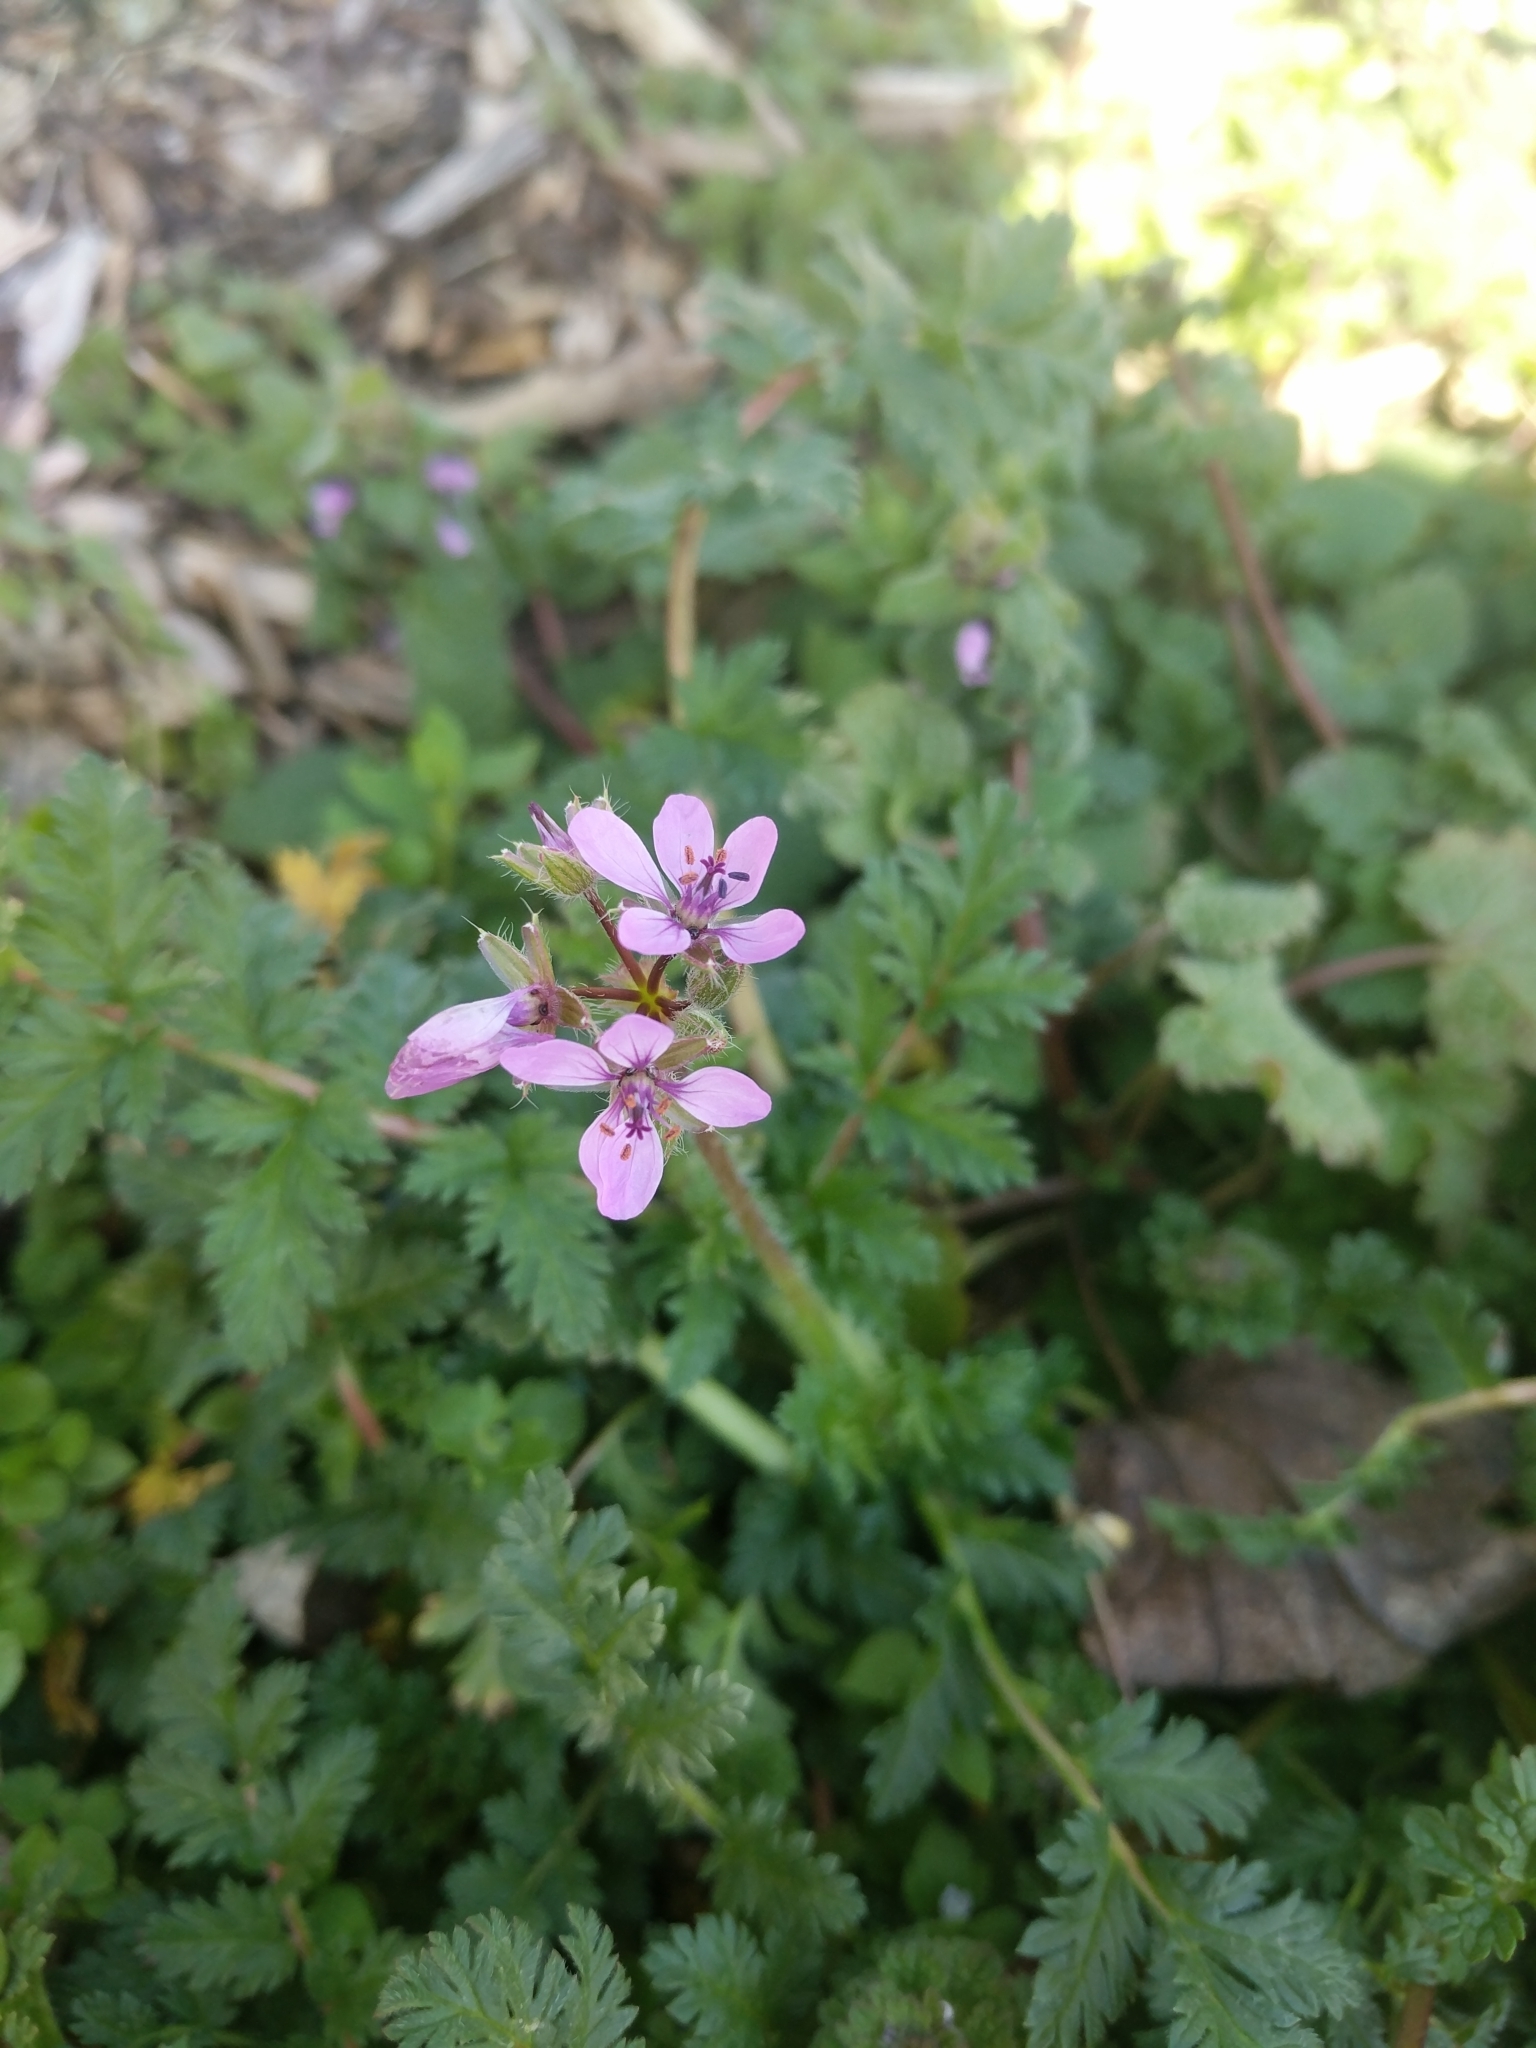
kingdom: Plantae
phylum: Tracheophyta
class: Magnoliopsida
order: Geraniales
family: Geraniaceae
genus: Erodium
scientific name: Erodium cicutarium
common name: Common stork's-bill
